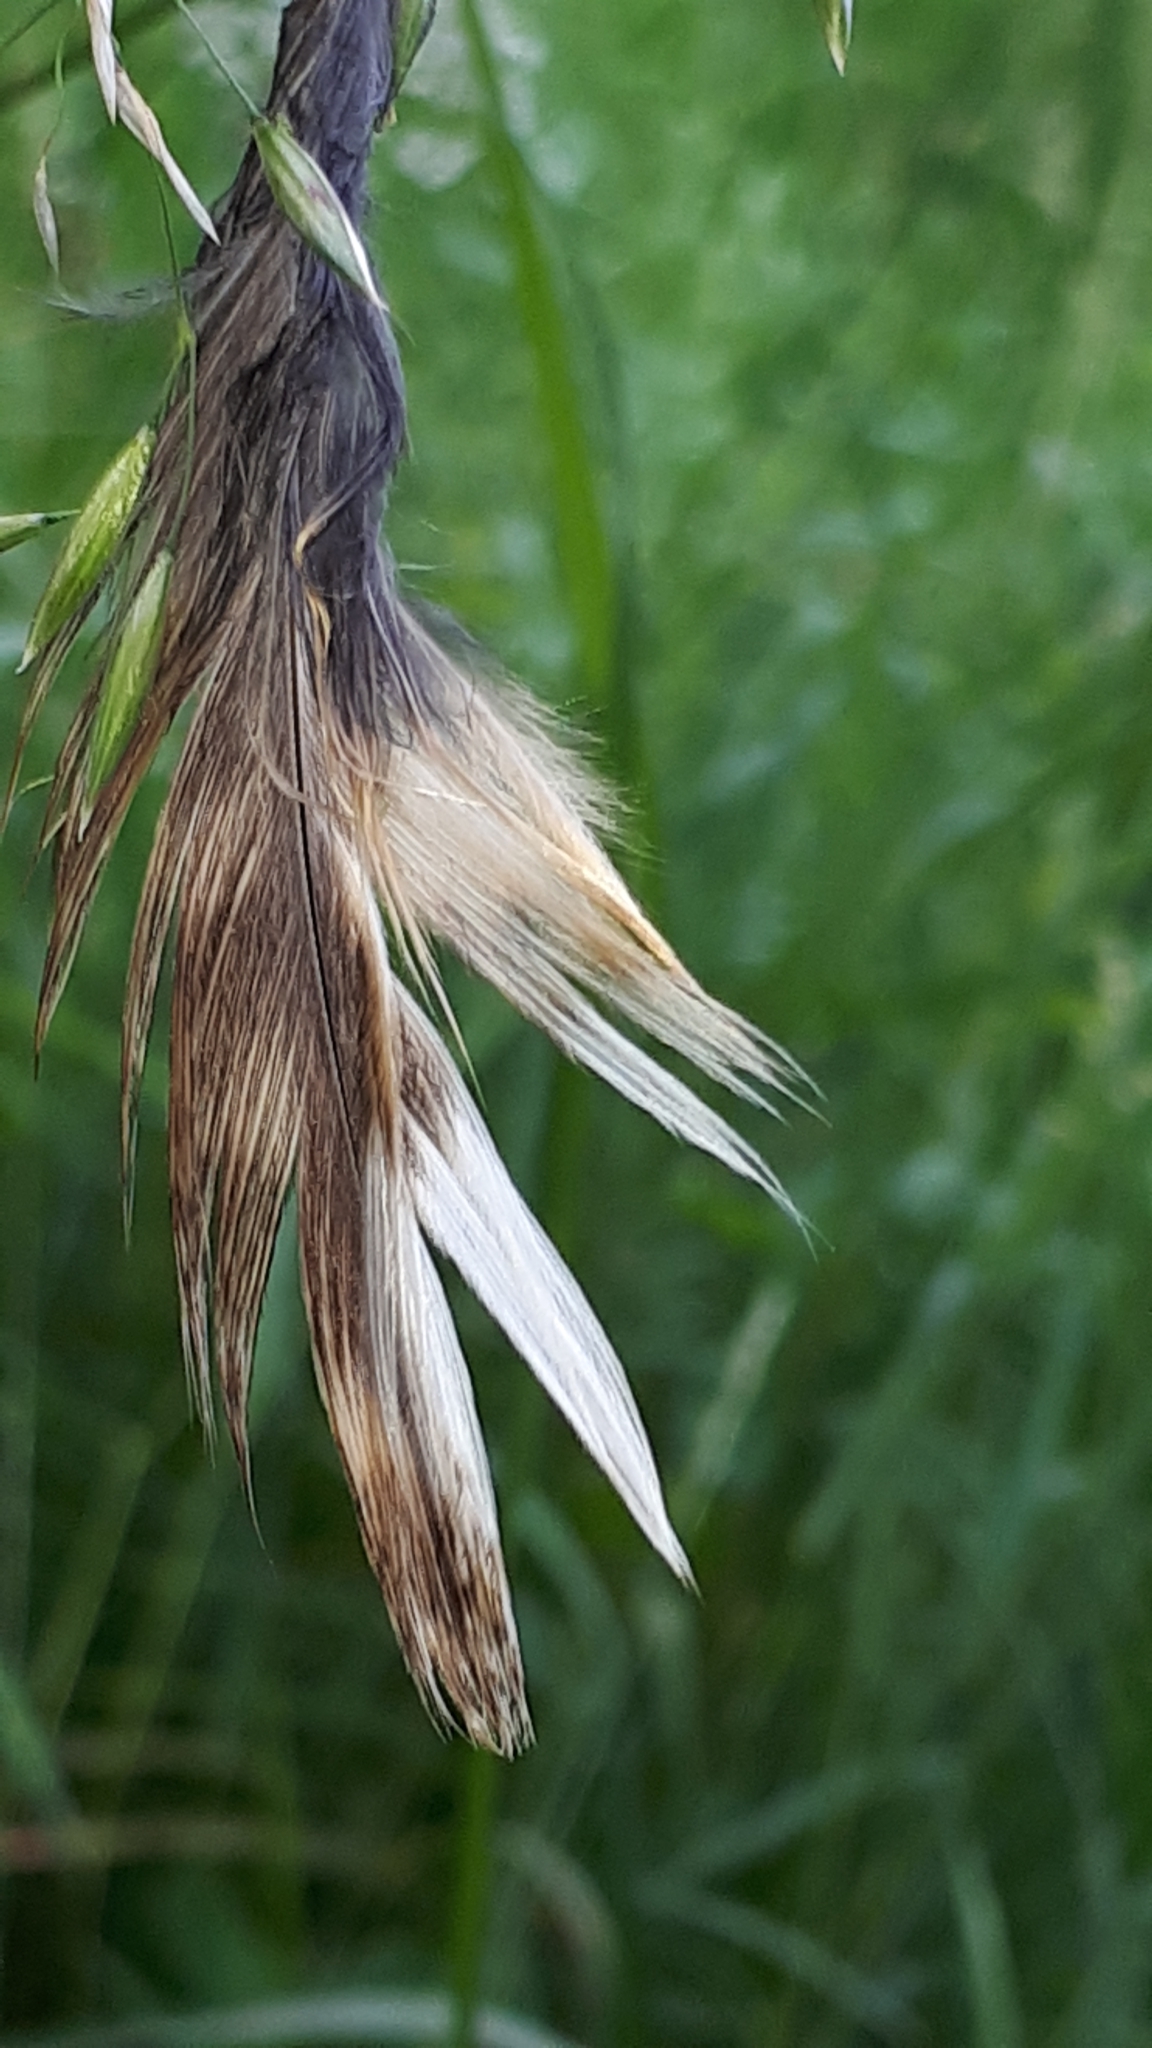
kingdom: Animalia
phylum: Chordata
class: Aves
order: Strigiformes
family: Strigidae
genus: Strix
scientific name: Strix aluco
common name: Tawny owl
